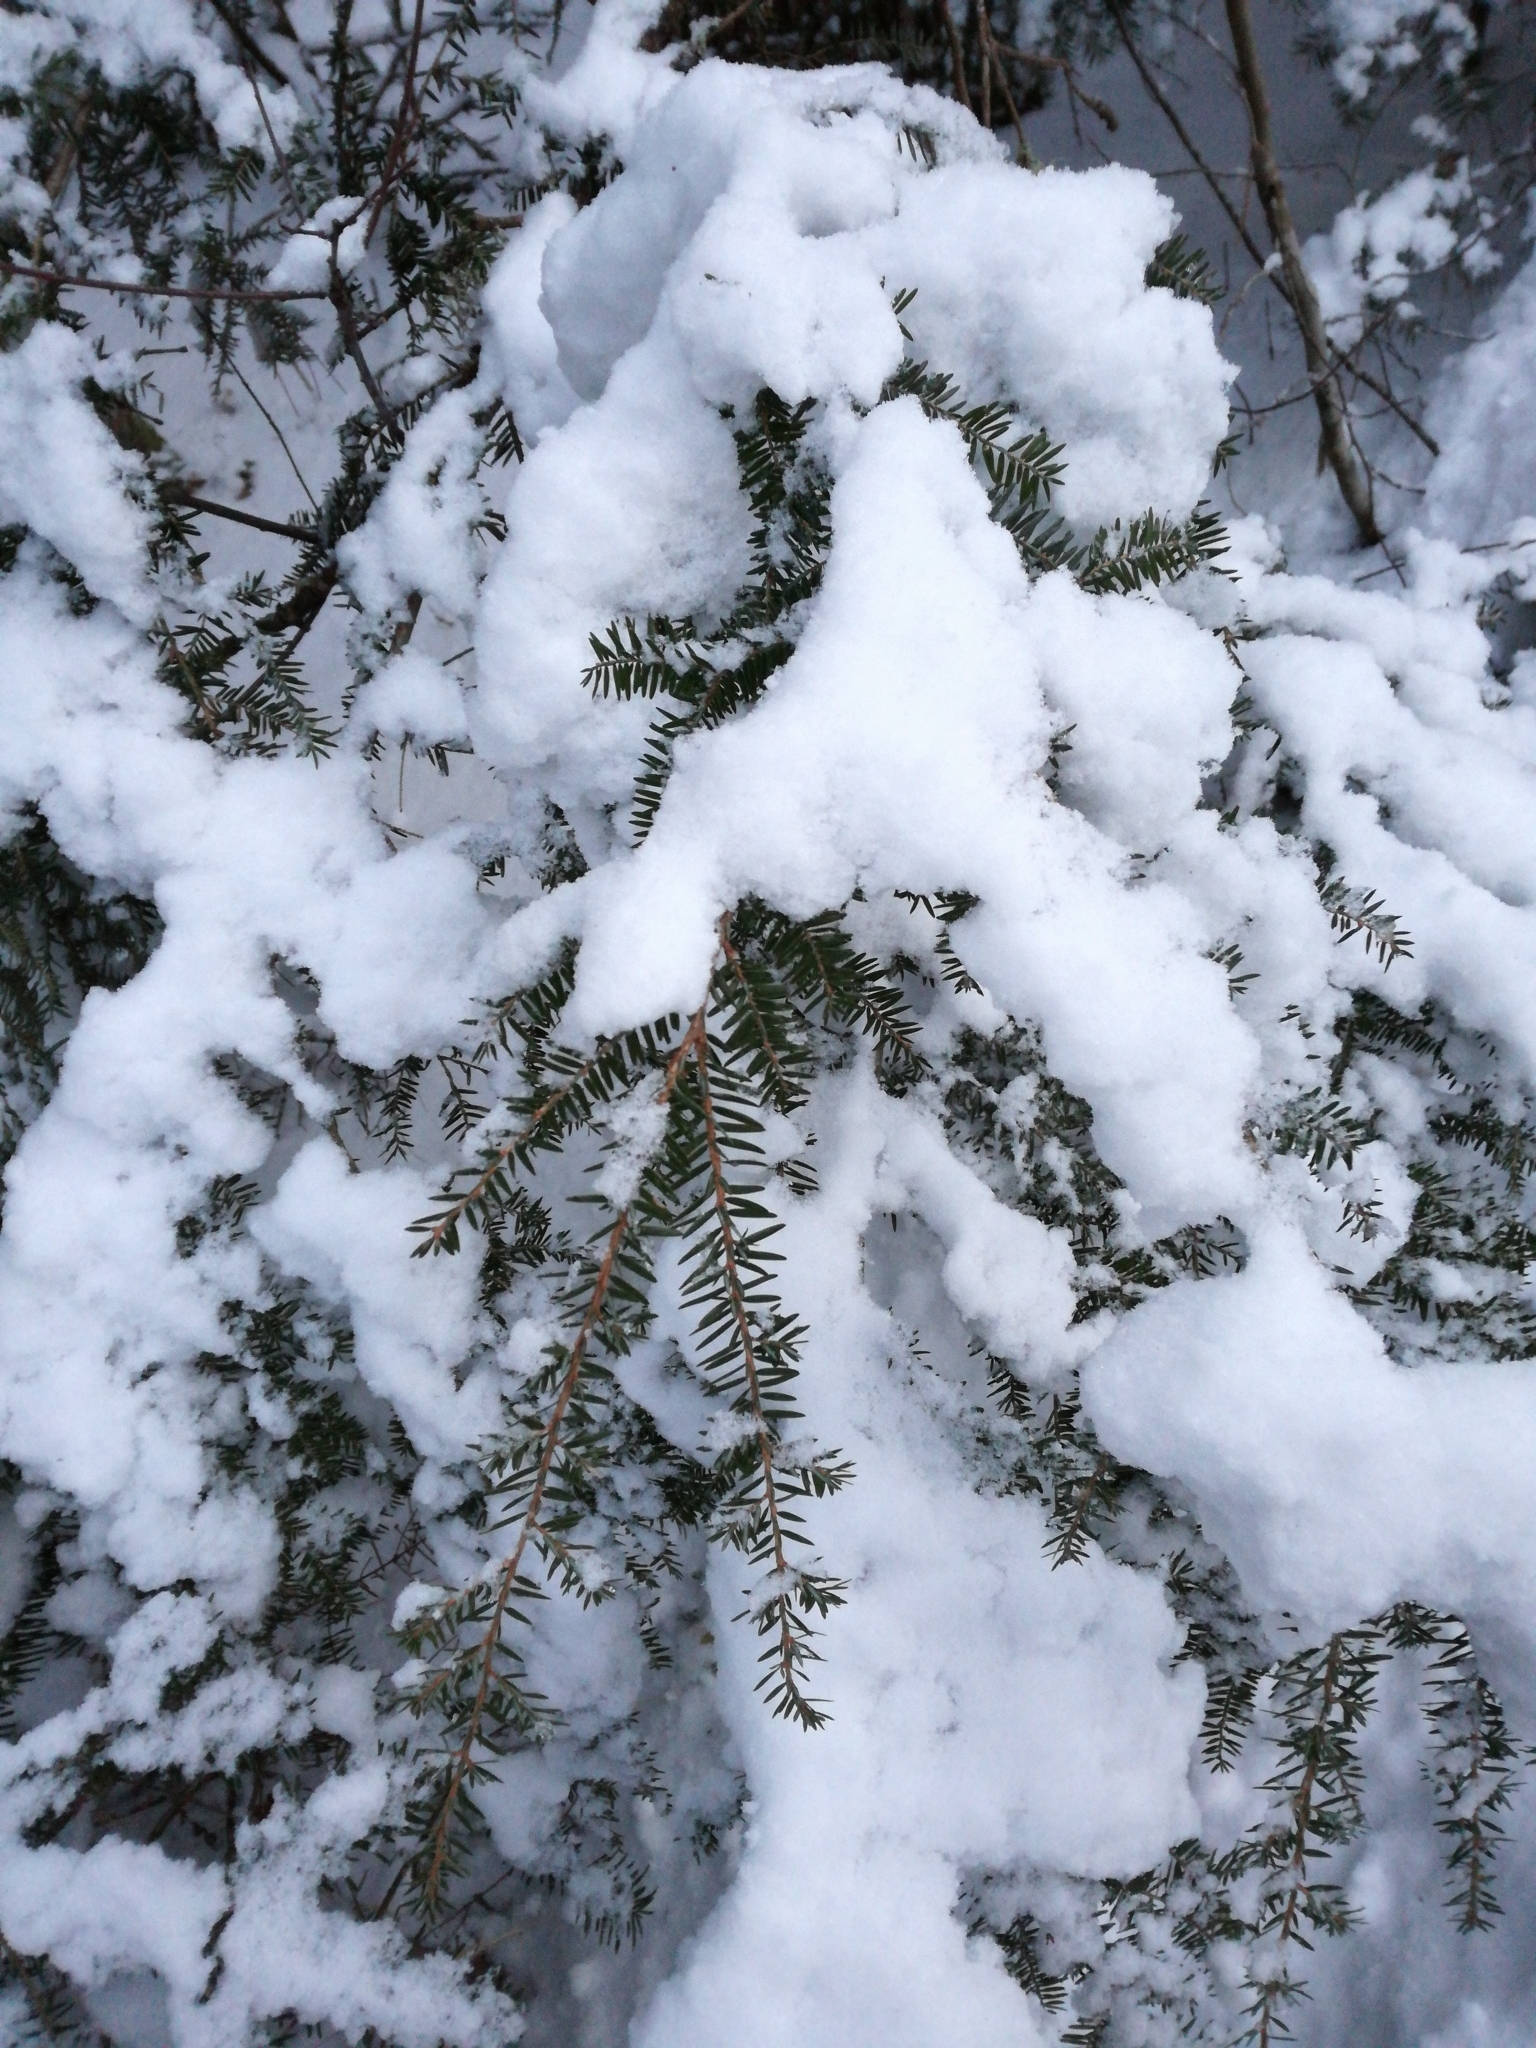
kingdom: Plantae
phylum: Tracheophyta
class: Pinopsida
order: Pinales
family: Pinaceae
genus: Tsuga
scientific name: Tsuga canadensis
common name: Eastern hemlock
